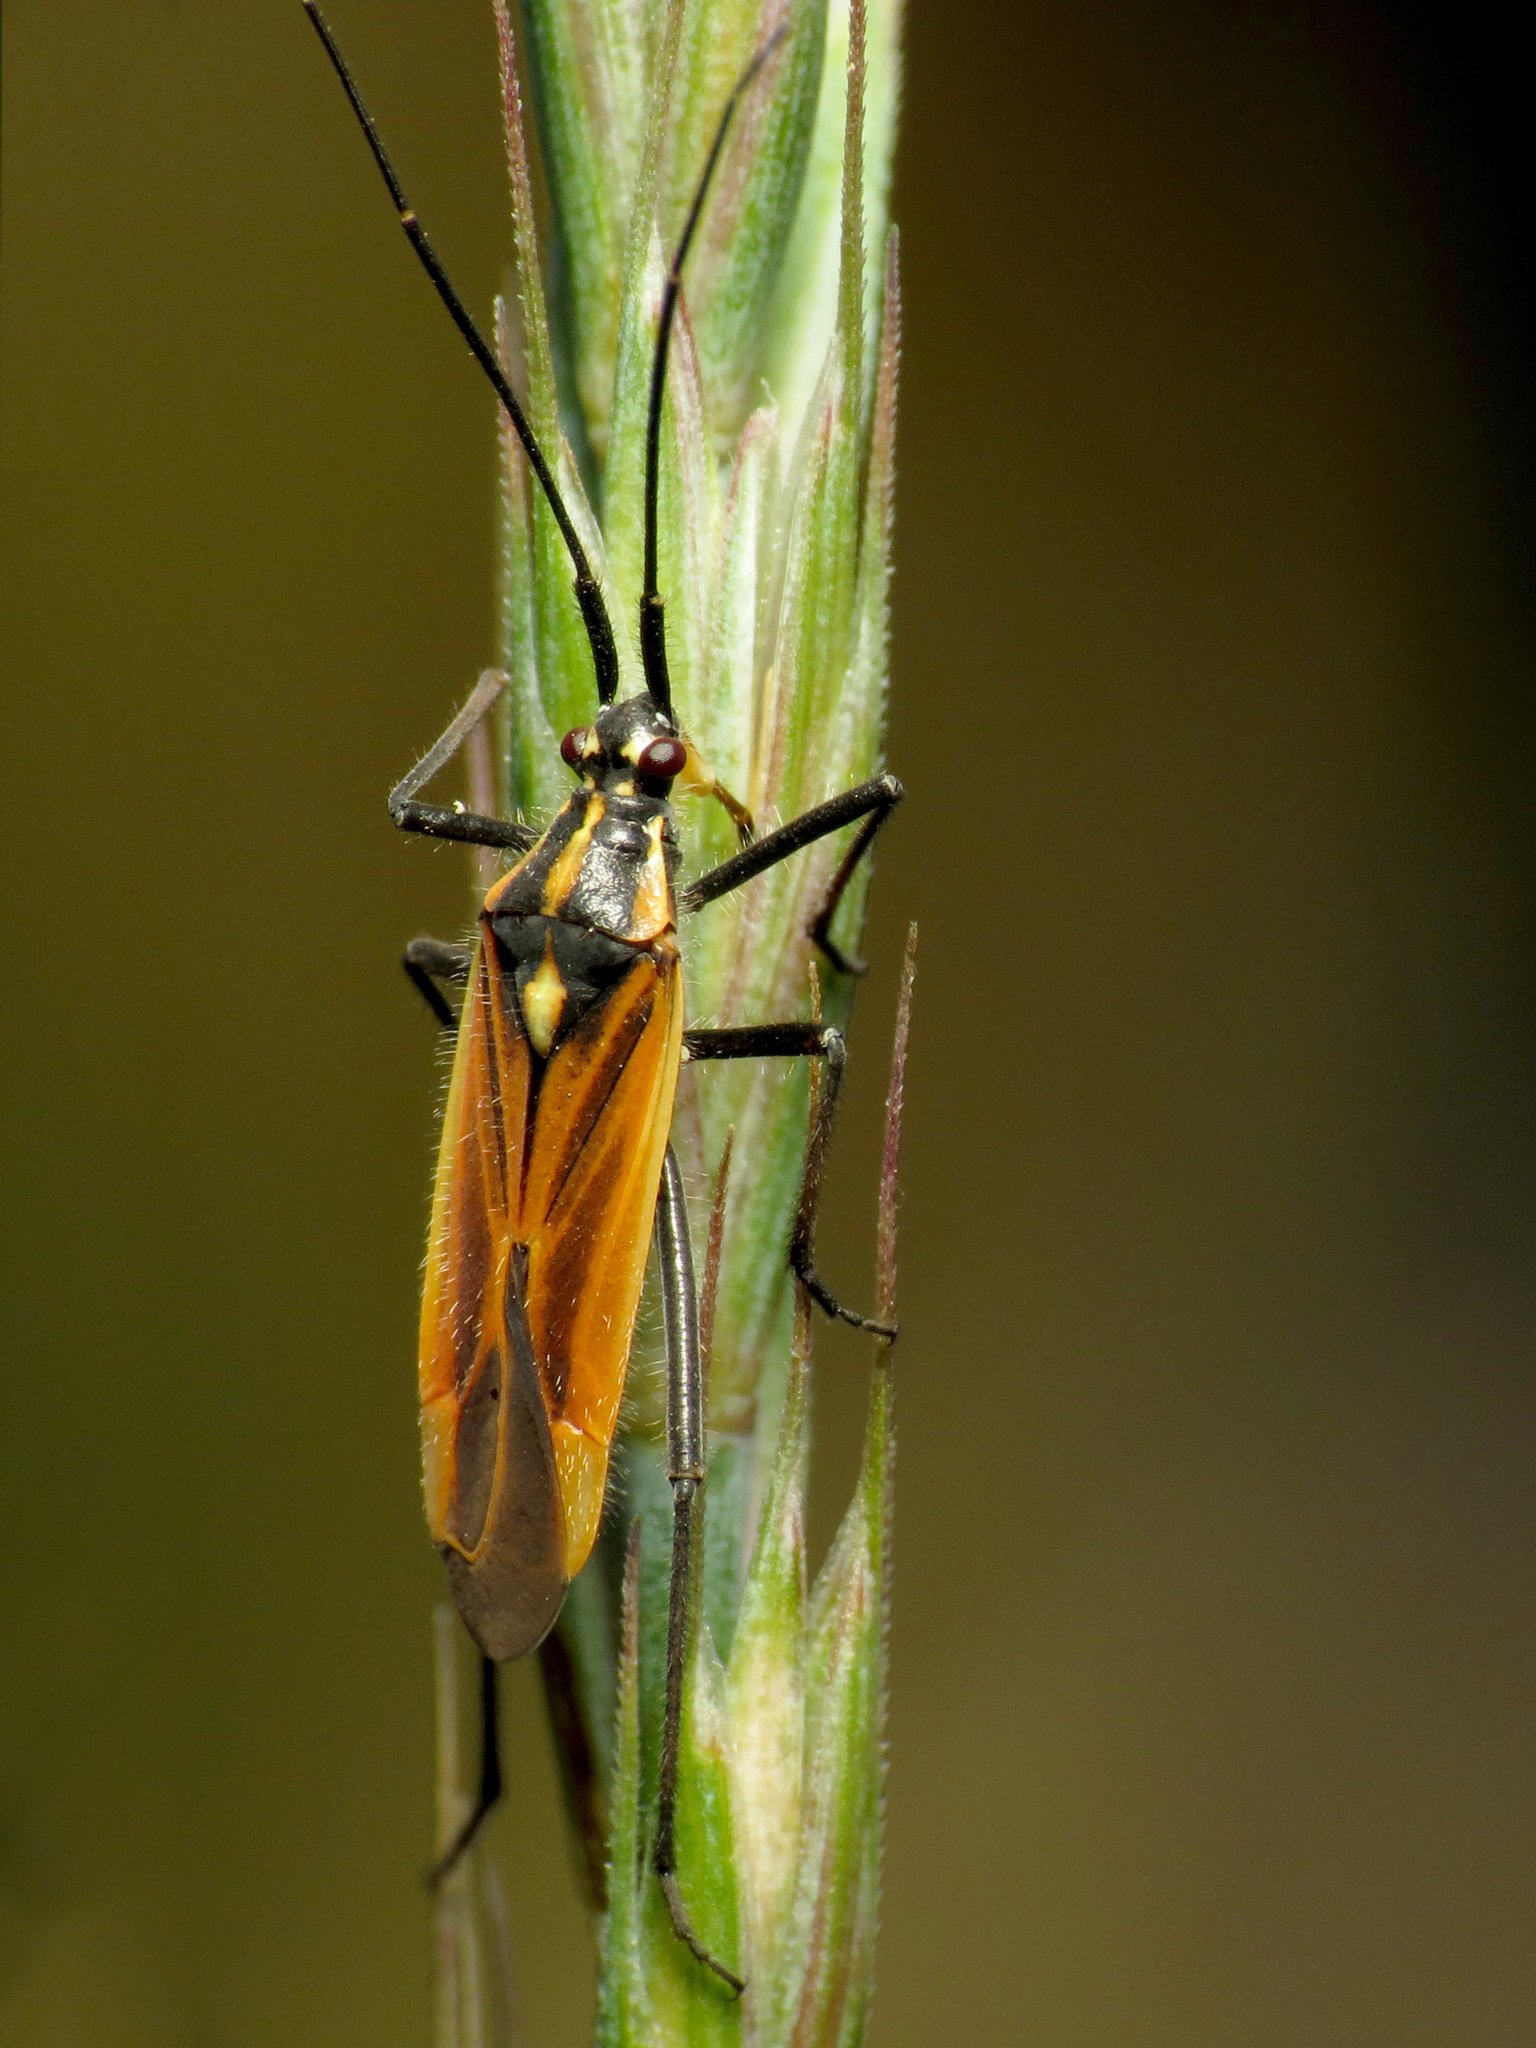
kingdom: Animalia
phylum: Arthropoda
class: Insecta
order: Hemiptera
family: Miridae
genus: Leptopterna
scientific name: Leptopterna dolabrata
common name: Meadow plant bug
